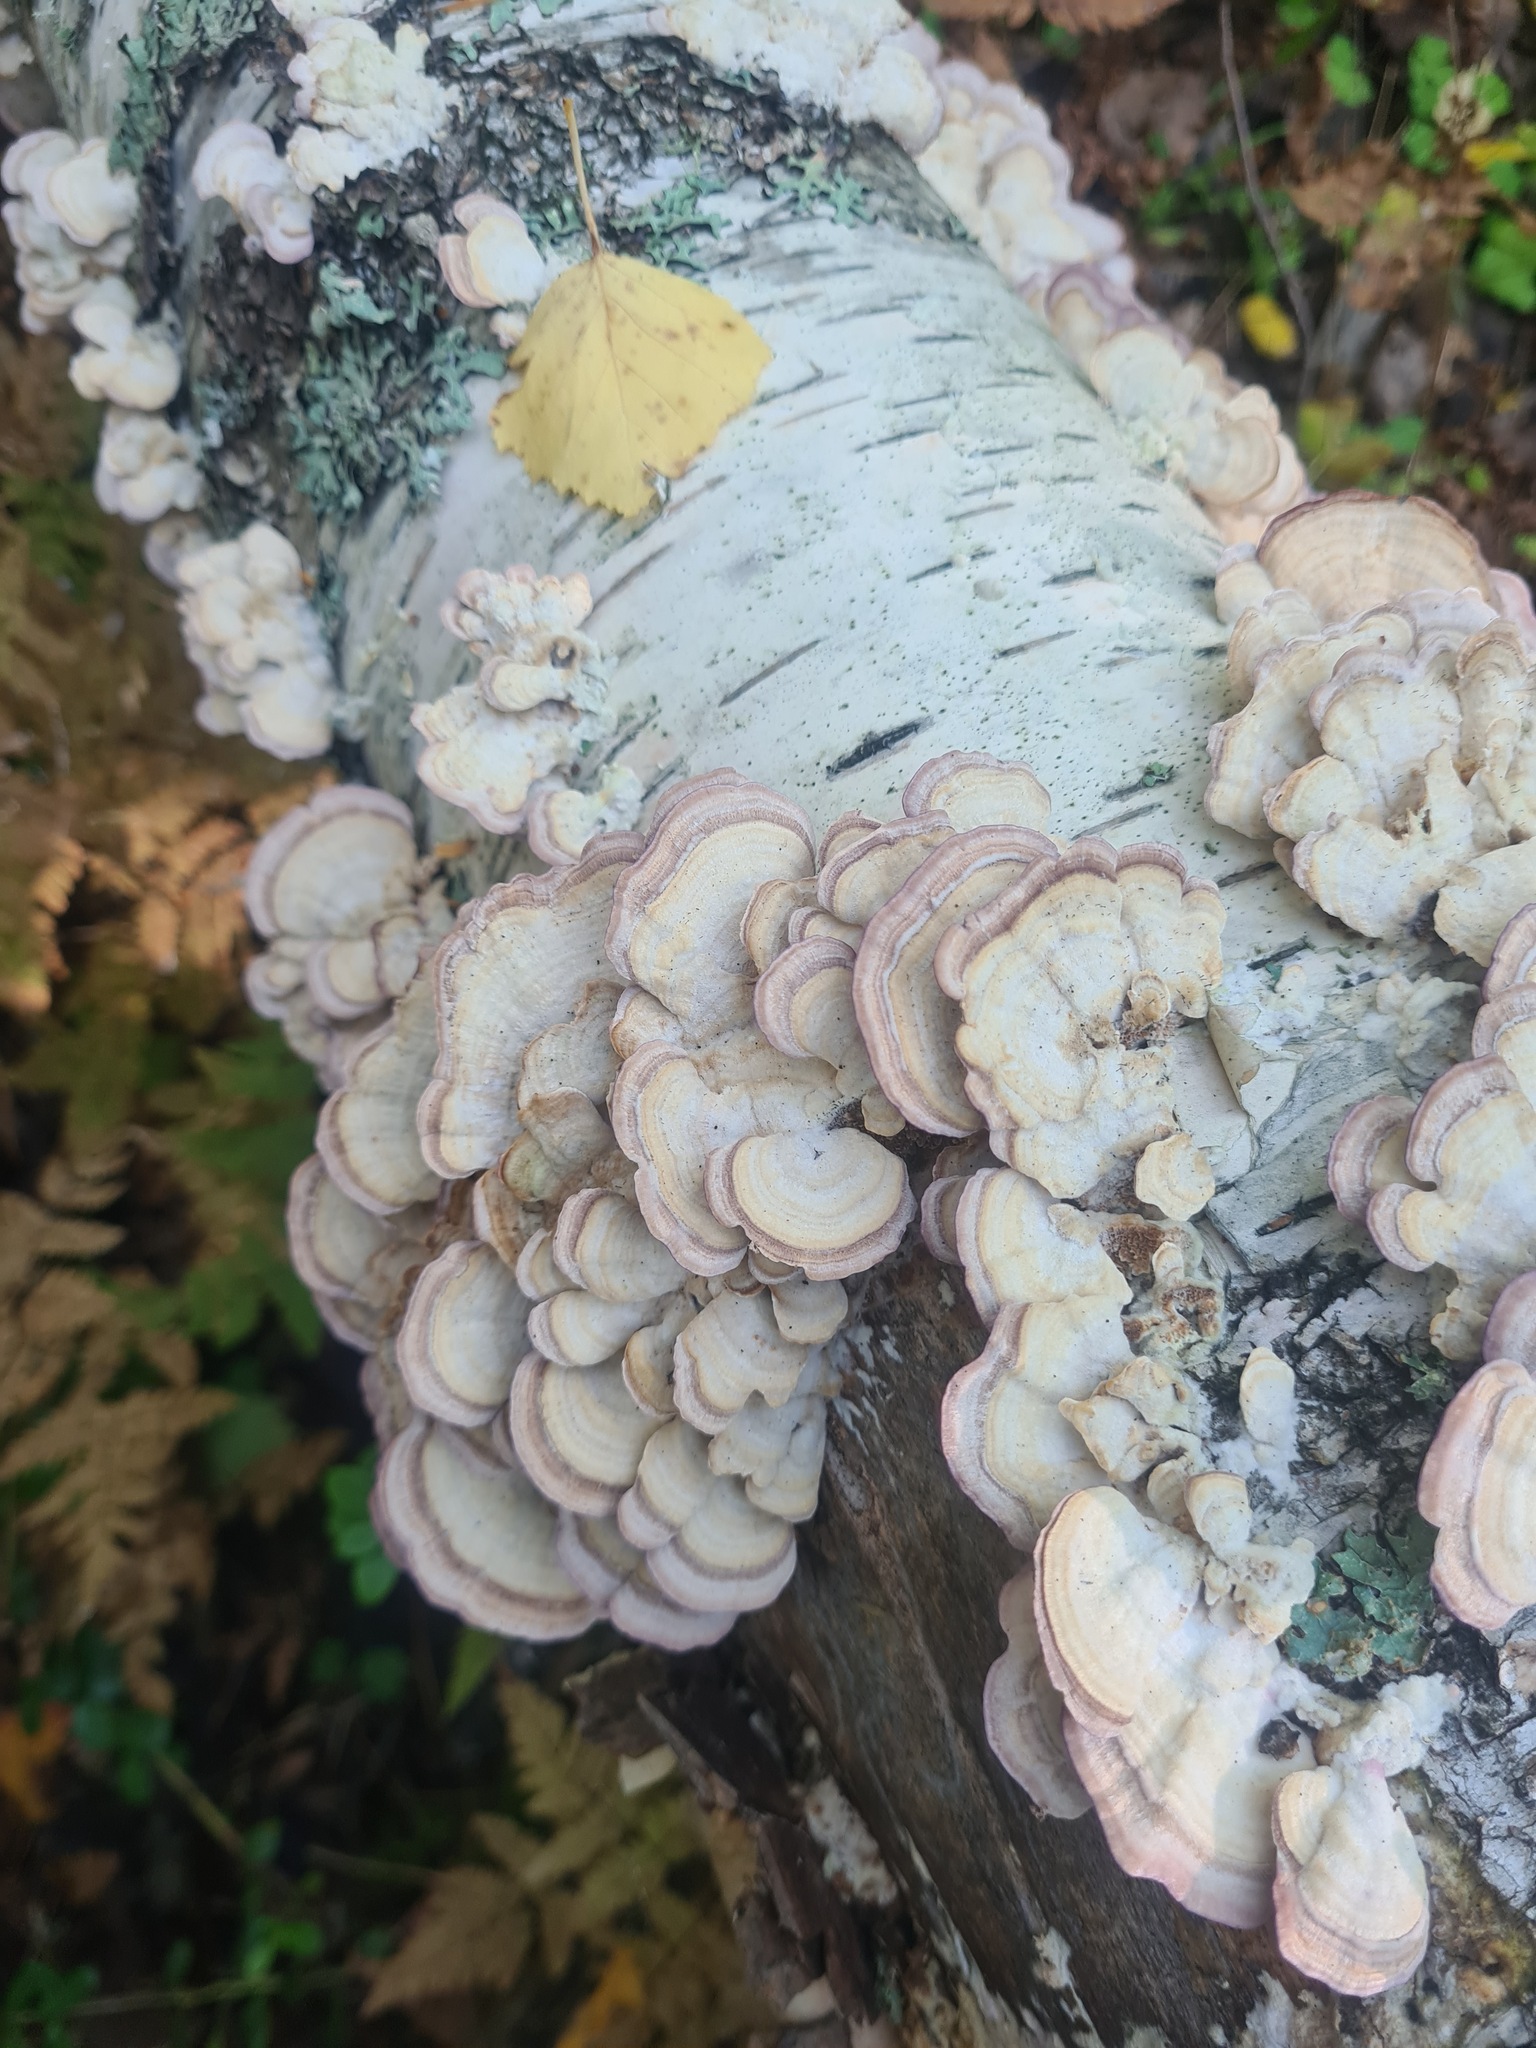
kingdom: Fungi
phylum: Basidiomycota
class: Agaricomycetes
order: Hymenochaetales
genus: Trichaptum
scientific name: Trichaptum biforme
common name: Violet-toothed polypore
